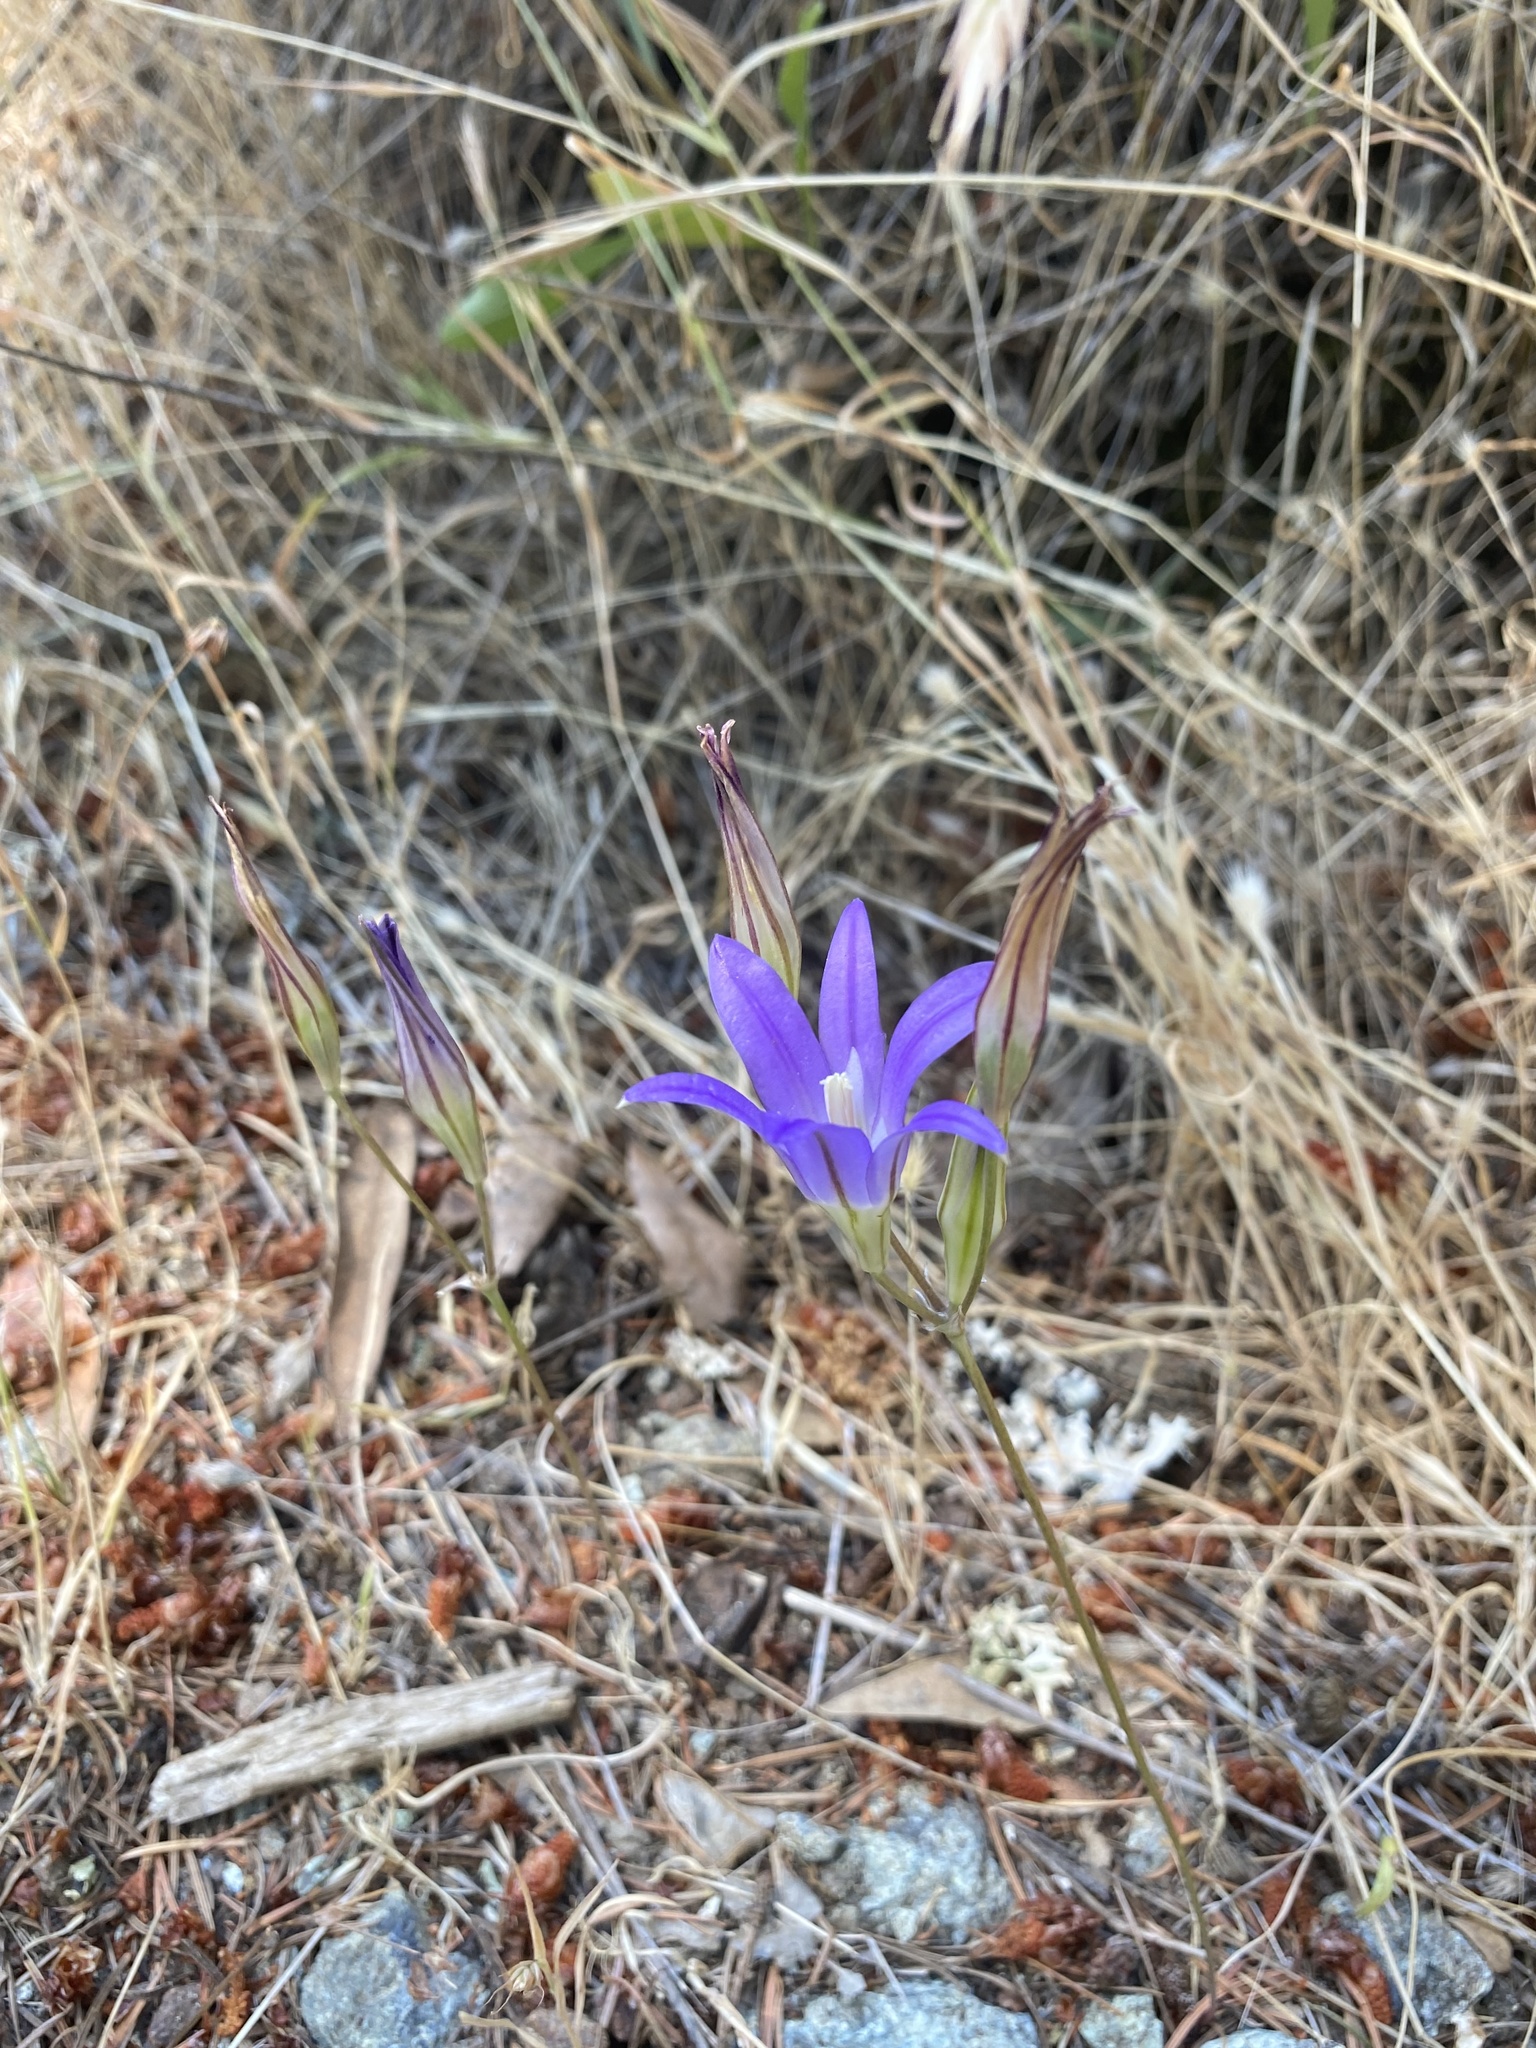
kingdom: Plantae
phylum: Tracheophyta
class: Liliopsida
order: Asparagales
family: Asparagaceae
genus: Brodiaea
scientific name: Brodiaea elegans
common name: Elegant cluster-lily
